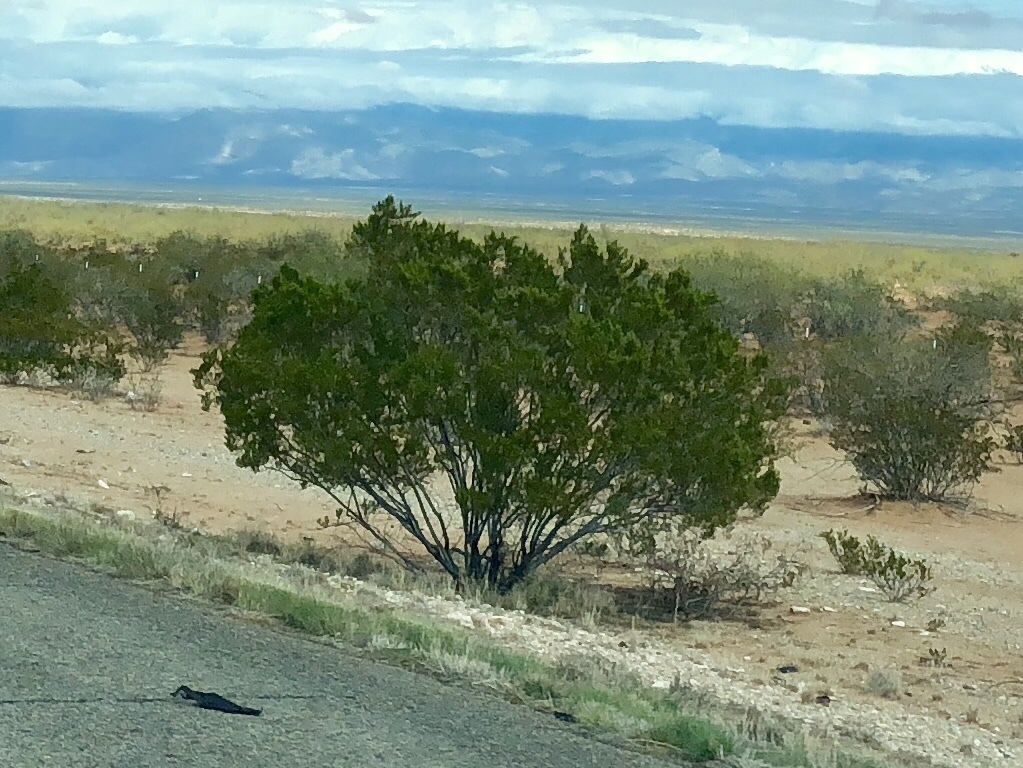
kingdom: Plantae
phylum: Tracheophyta
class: Magnoliopsida
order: Zygophyllales
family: Zygophyllaceae
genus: Larrea
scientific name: Larrea tridentata
